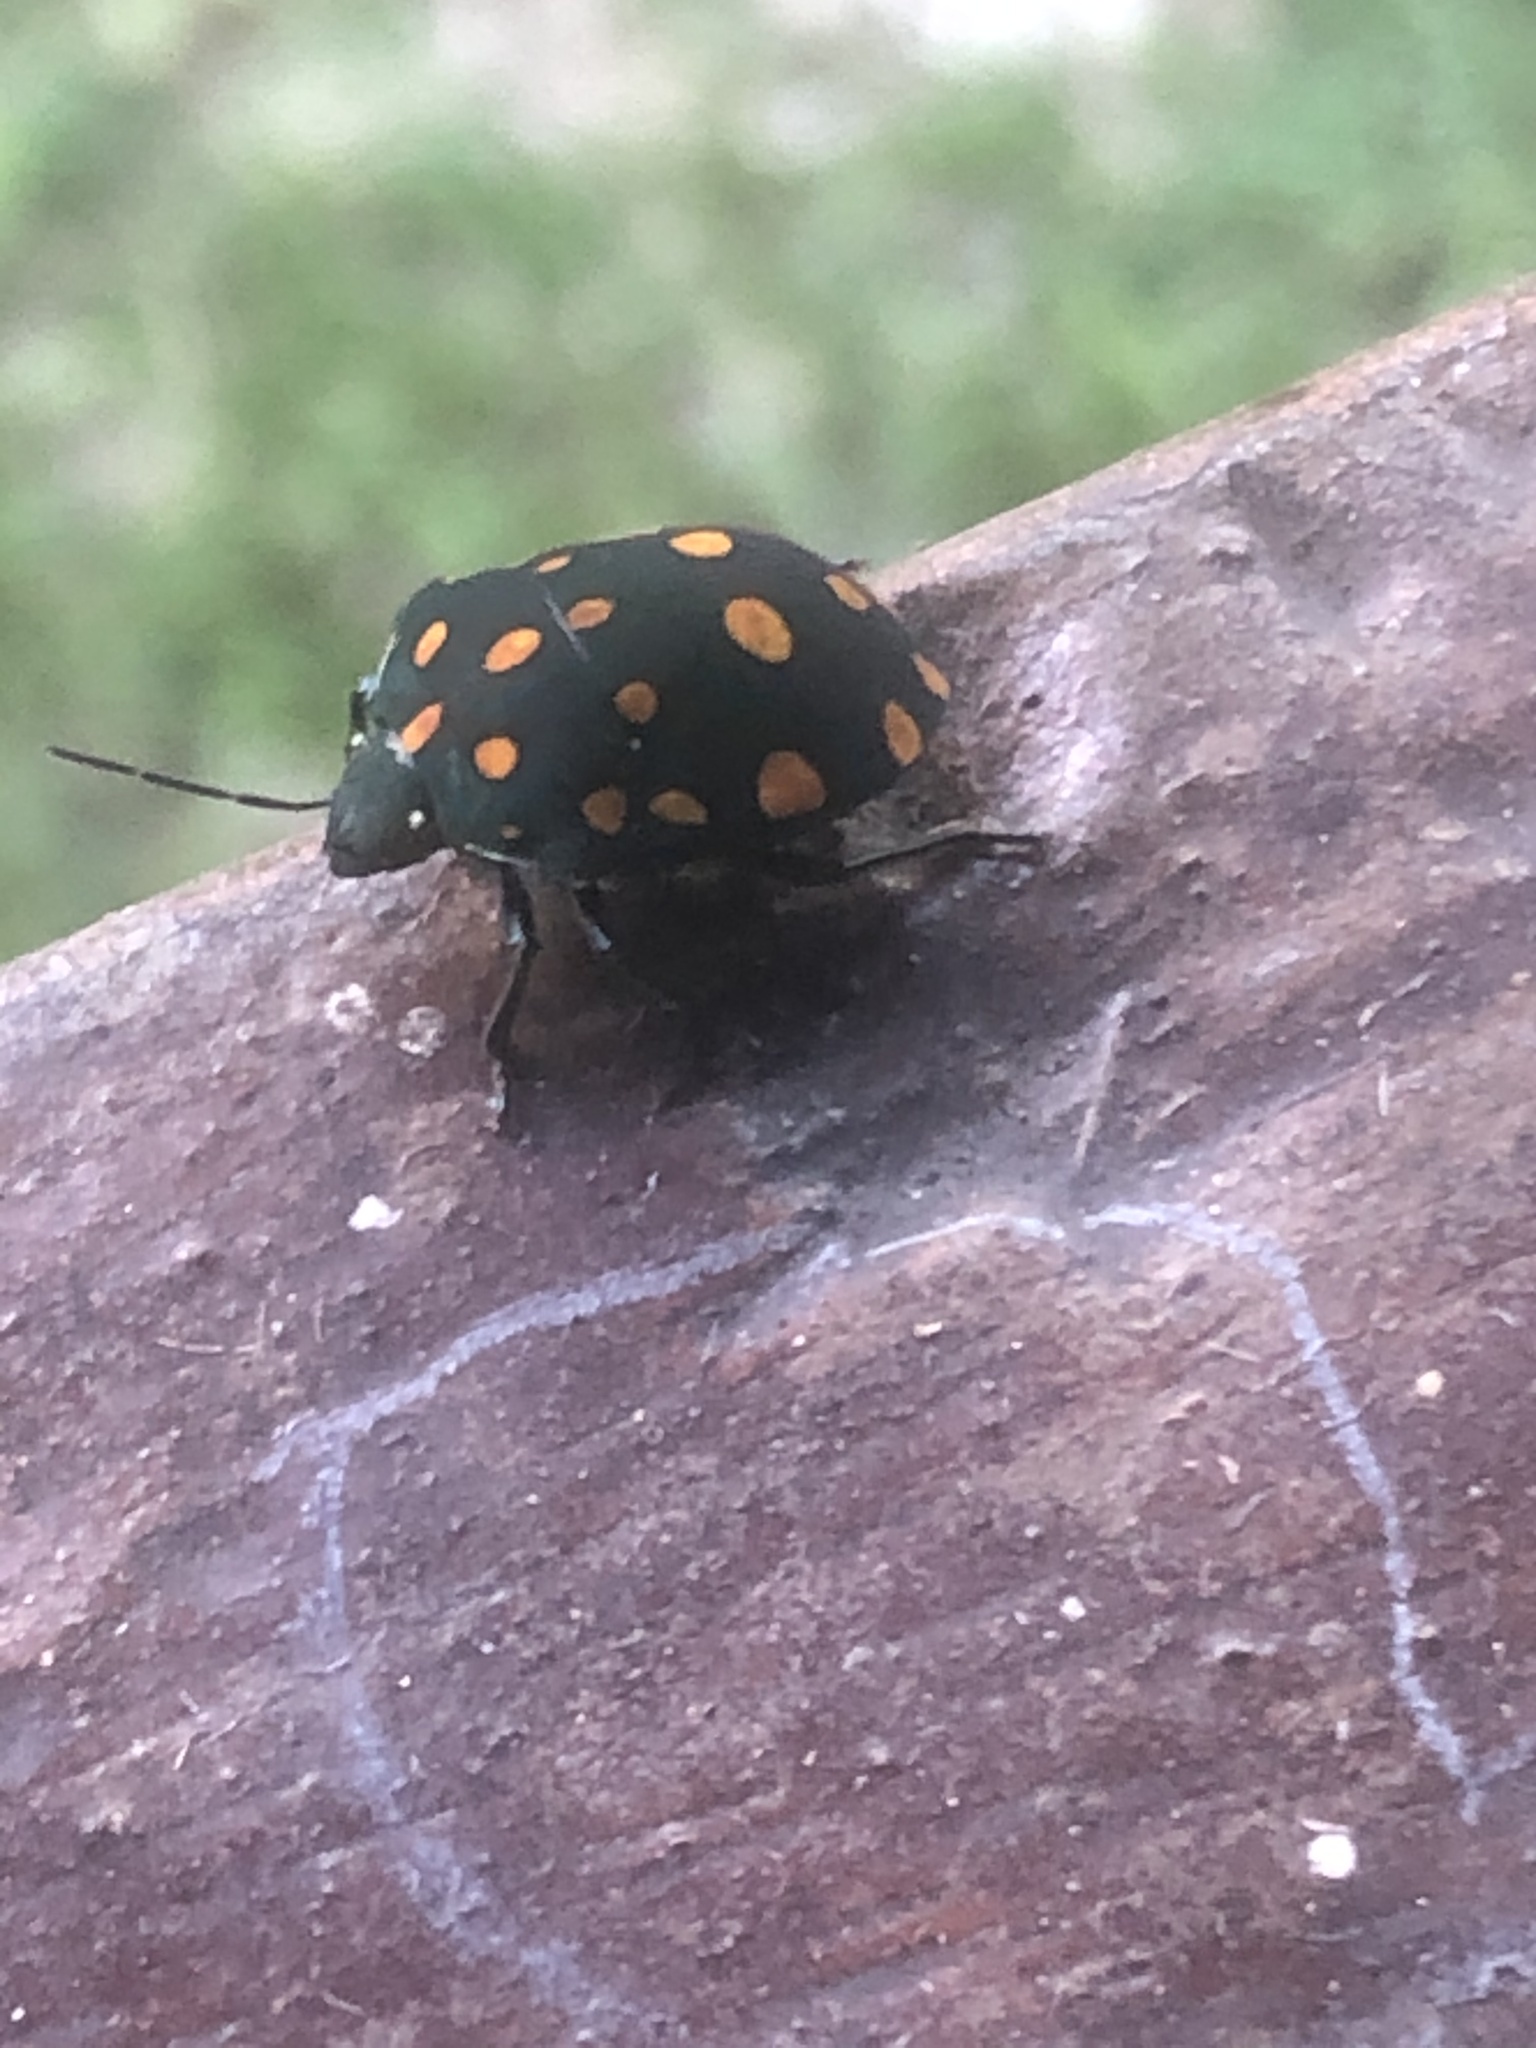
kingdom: Animalia
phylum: Arthropoda
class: Insecta
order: Hemiptera
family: Scutelleridae
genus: Pachycoris
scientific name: Pachycoris torridus
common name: Torrid jewel bug
